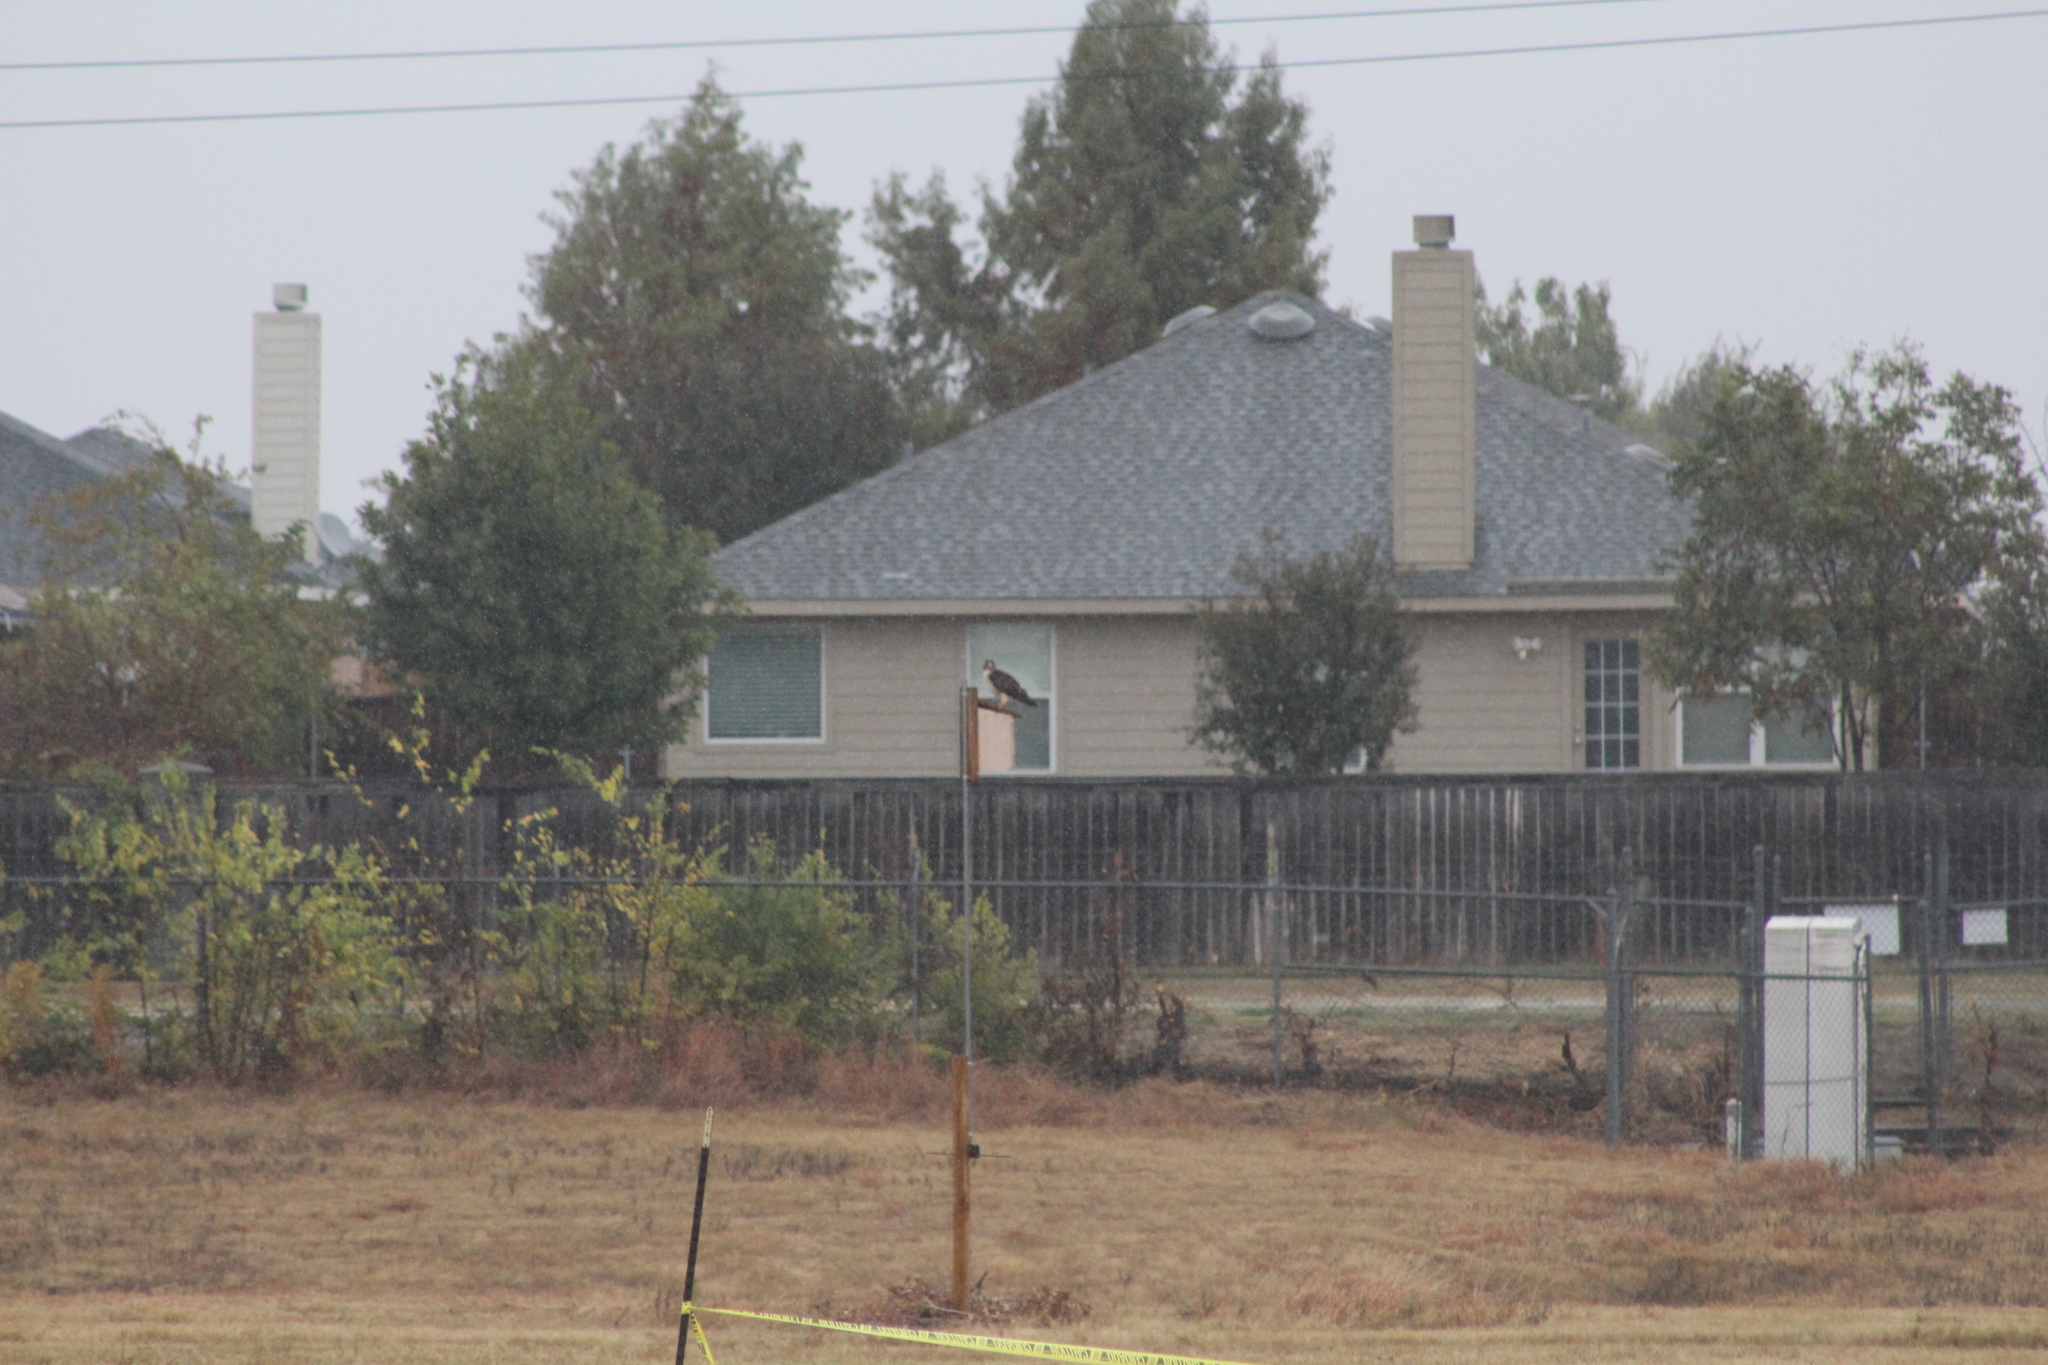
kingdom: Animalia
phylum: Chordata
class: Aves
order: Accipitriformes
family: Accipitridae
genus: Buteo
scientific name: Buteo jamaicensis
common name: Red-tailed hawk
